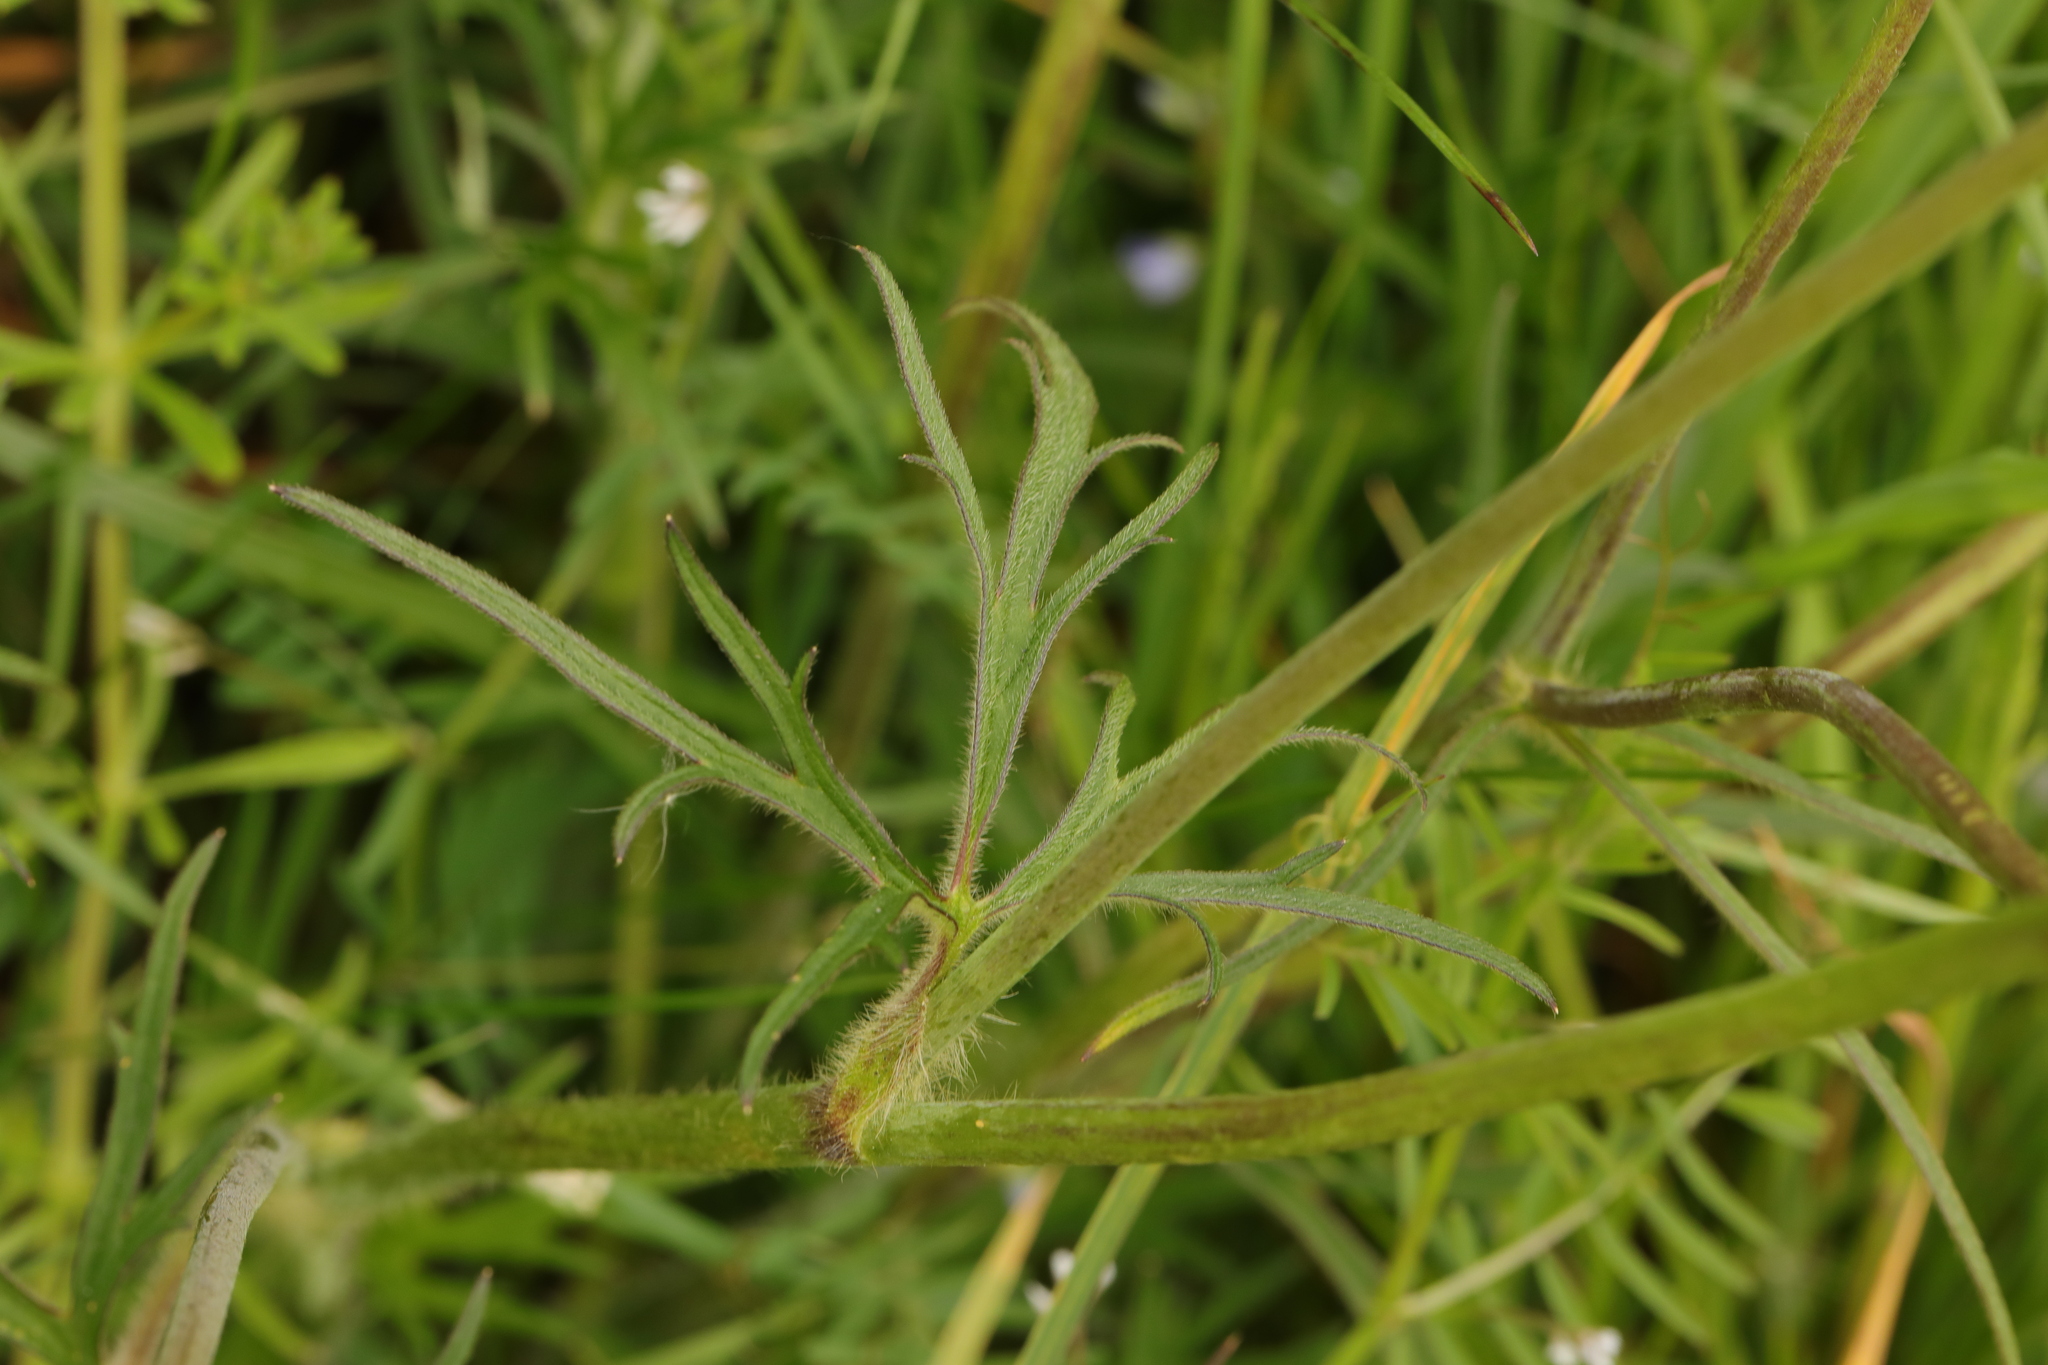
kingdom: Plantae
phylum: Tracheophyta
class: Magnoliopsida
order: Geraniales
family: Geraniaceae
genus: Geranium
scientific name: Geranium dissectum
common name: Cut-leaved crane's-bill
